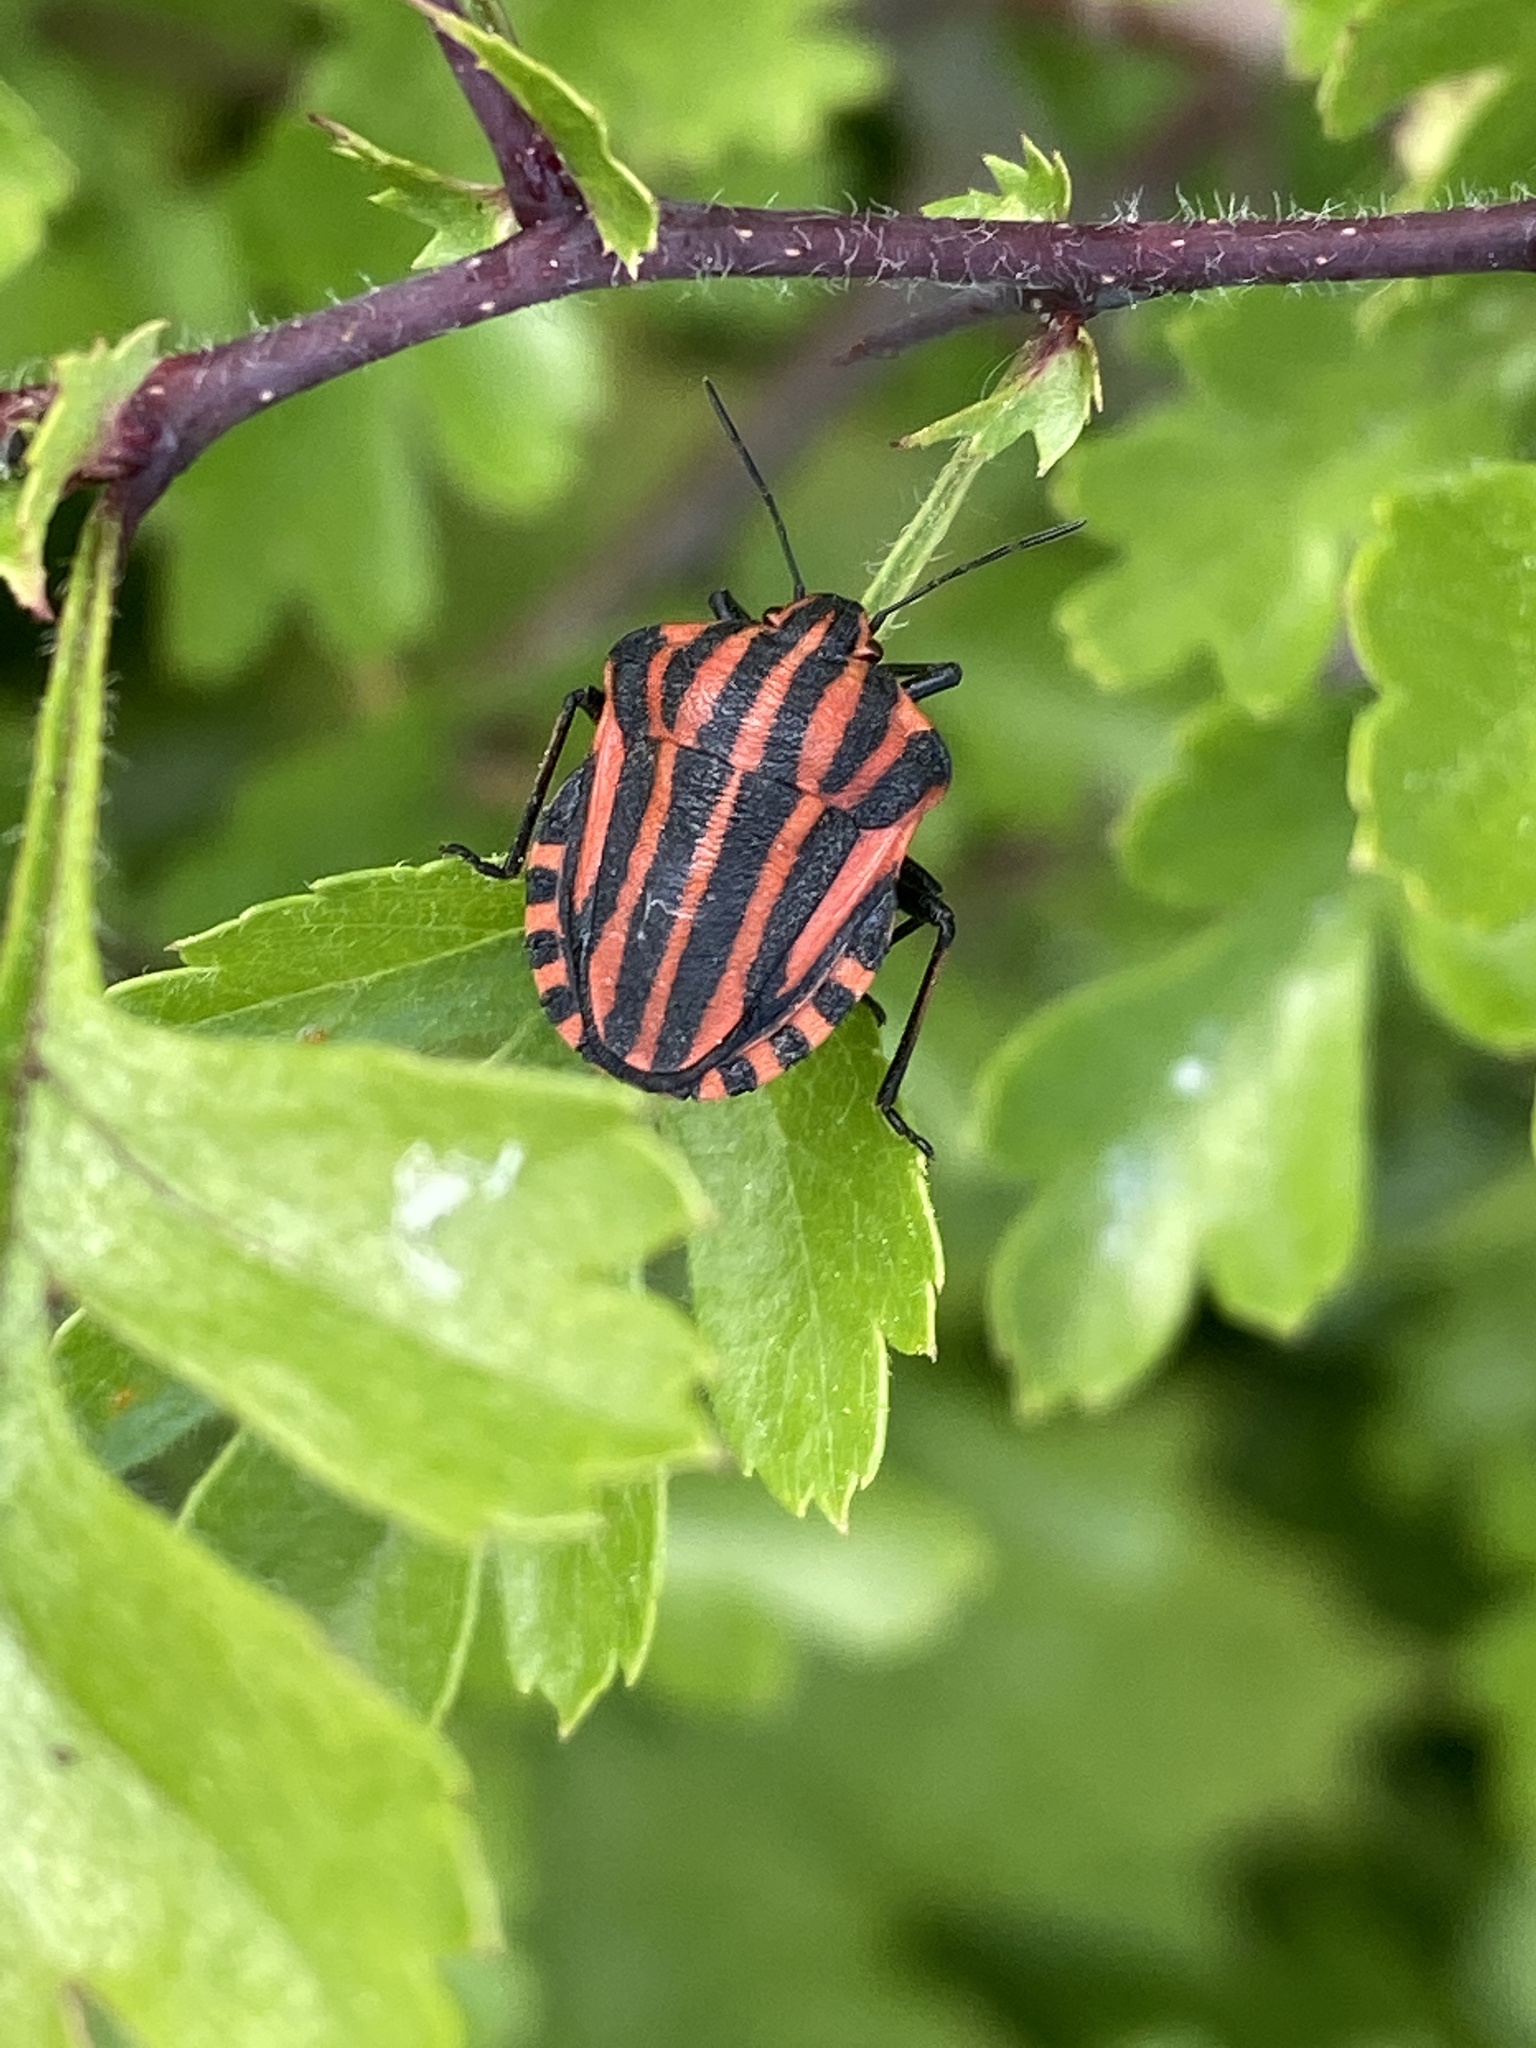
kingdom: Animalia
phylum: Arthropoda
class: Insecta
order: Hemiptera
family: Pentatomidae
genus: Graphosoma
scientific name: Graphosoma italicum
